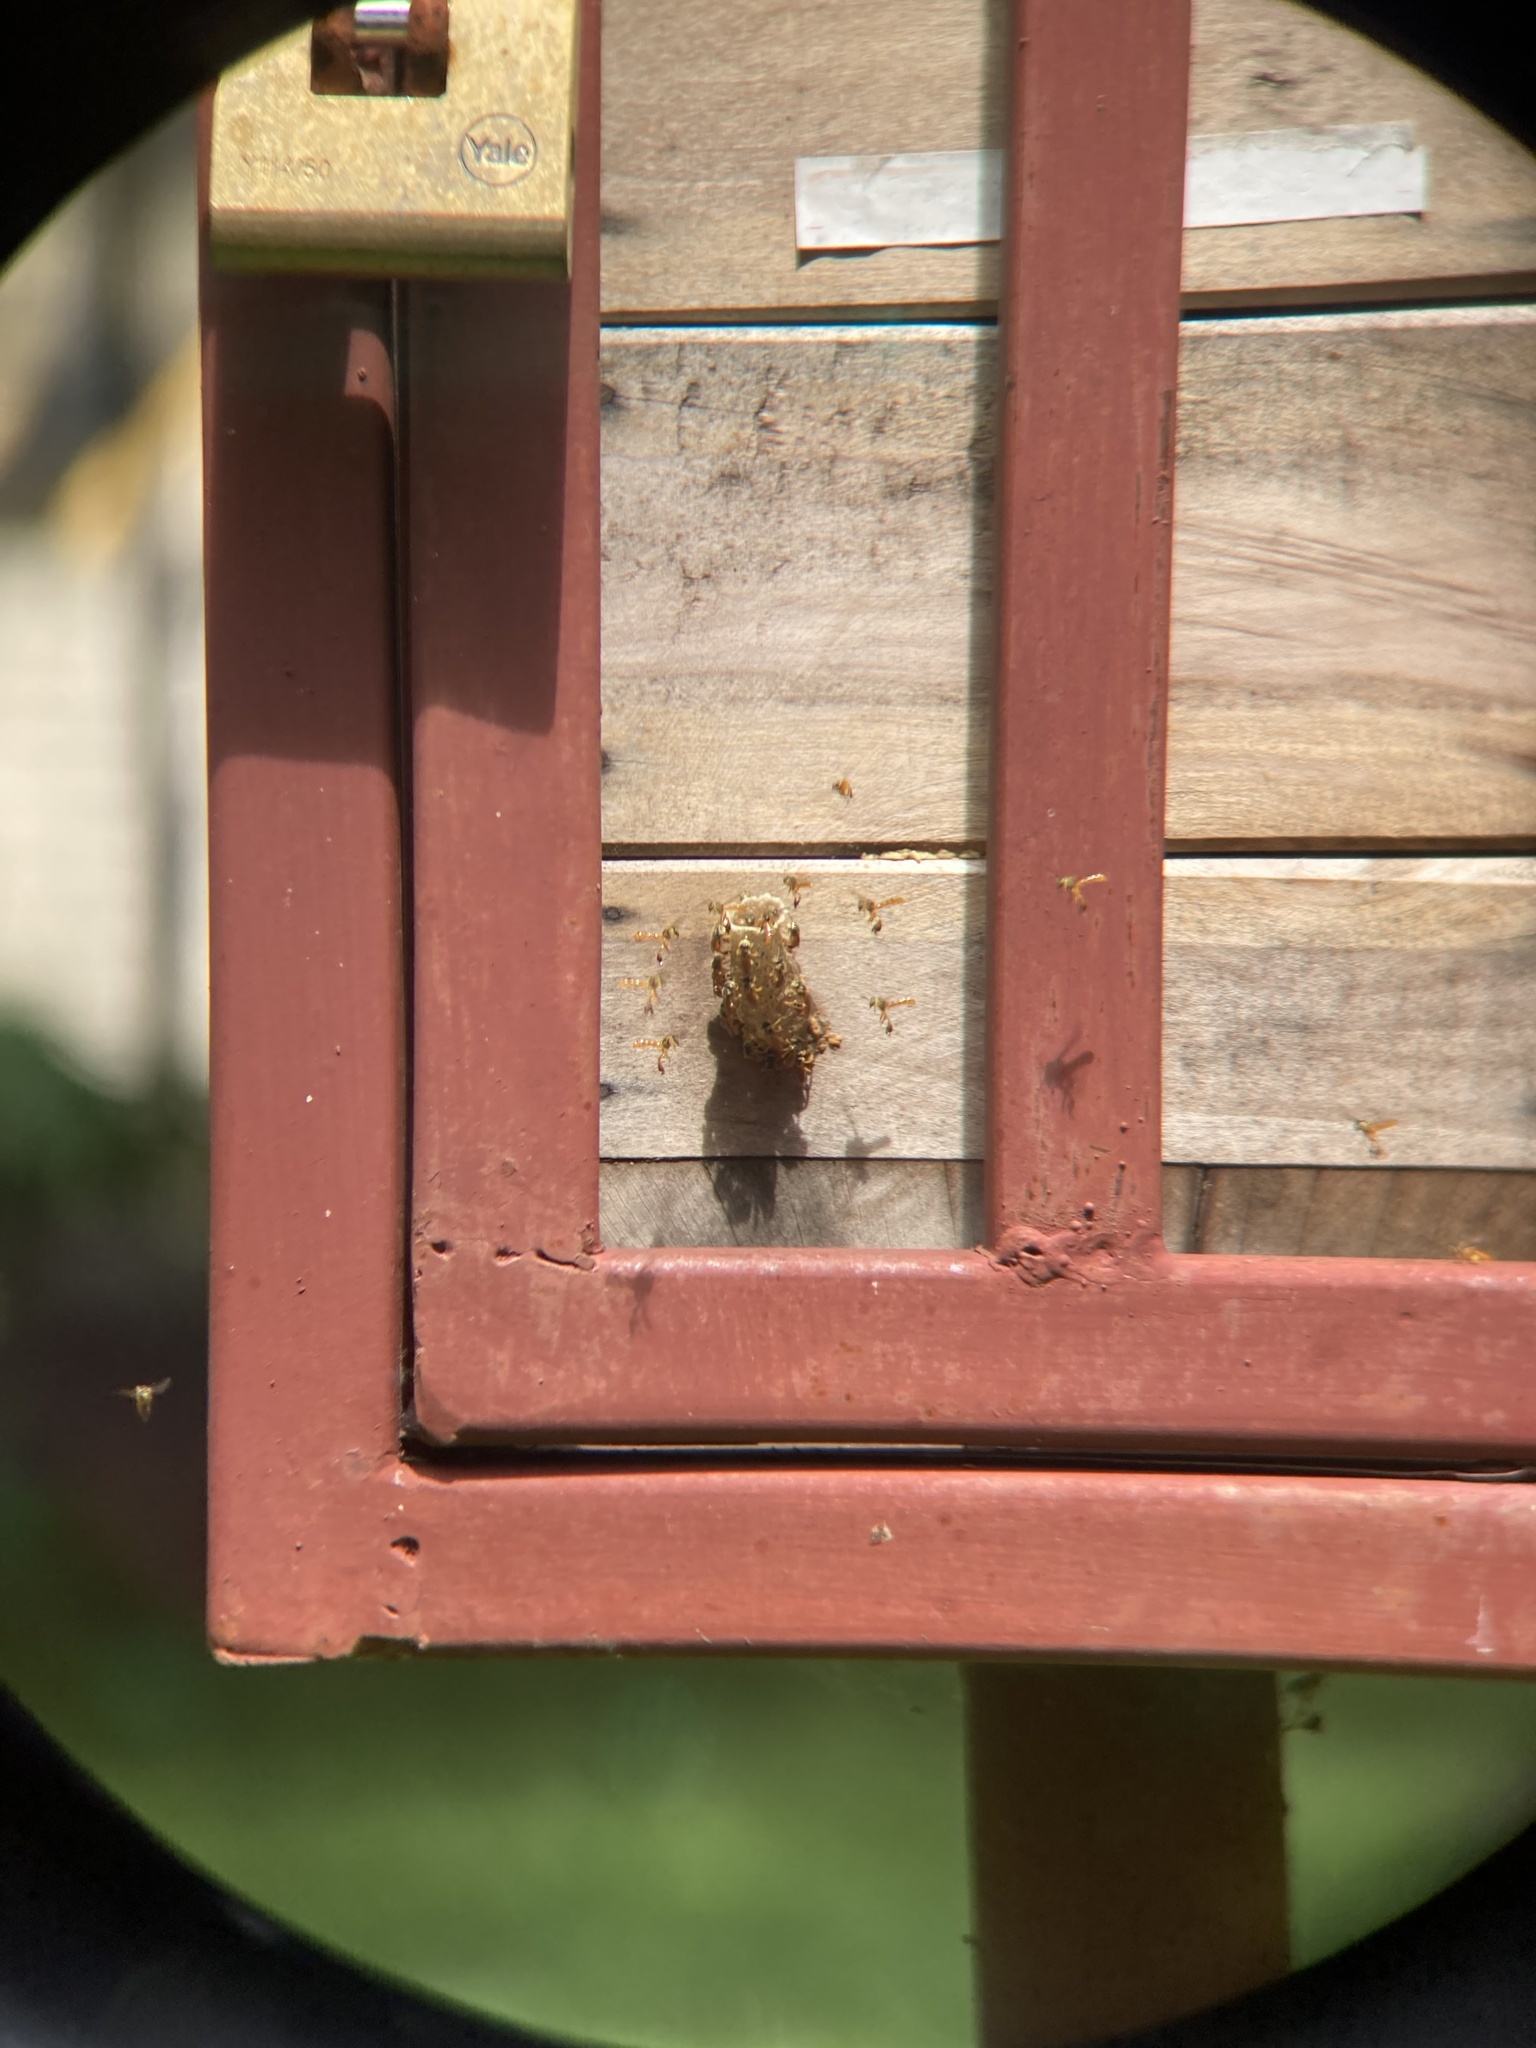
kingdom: Animalia
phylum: Arthropoda
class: Insecta
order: Hymenoptera
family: Apidae
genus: Tetragonisca
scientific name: Tetragonisca angustula
